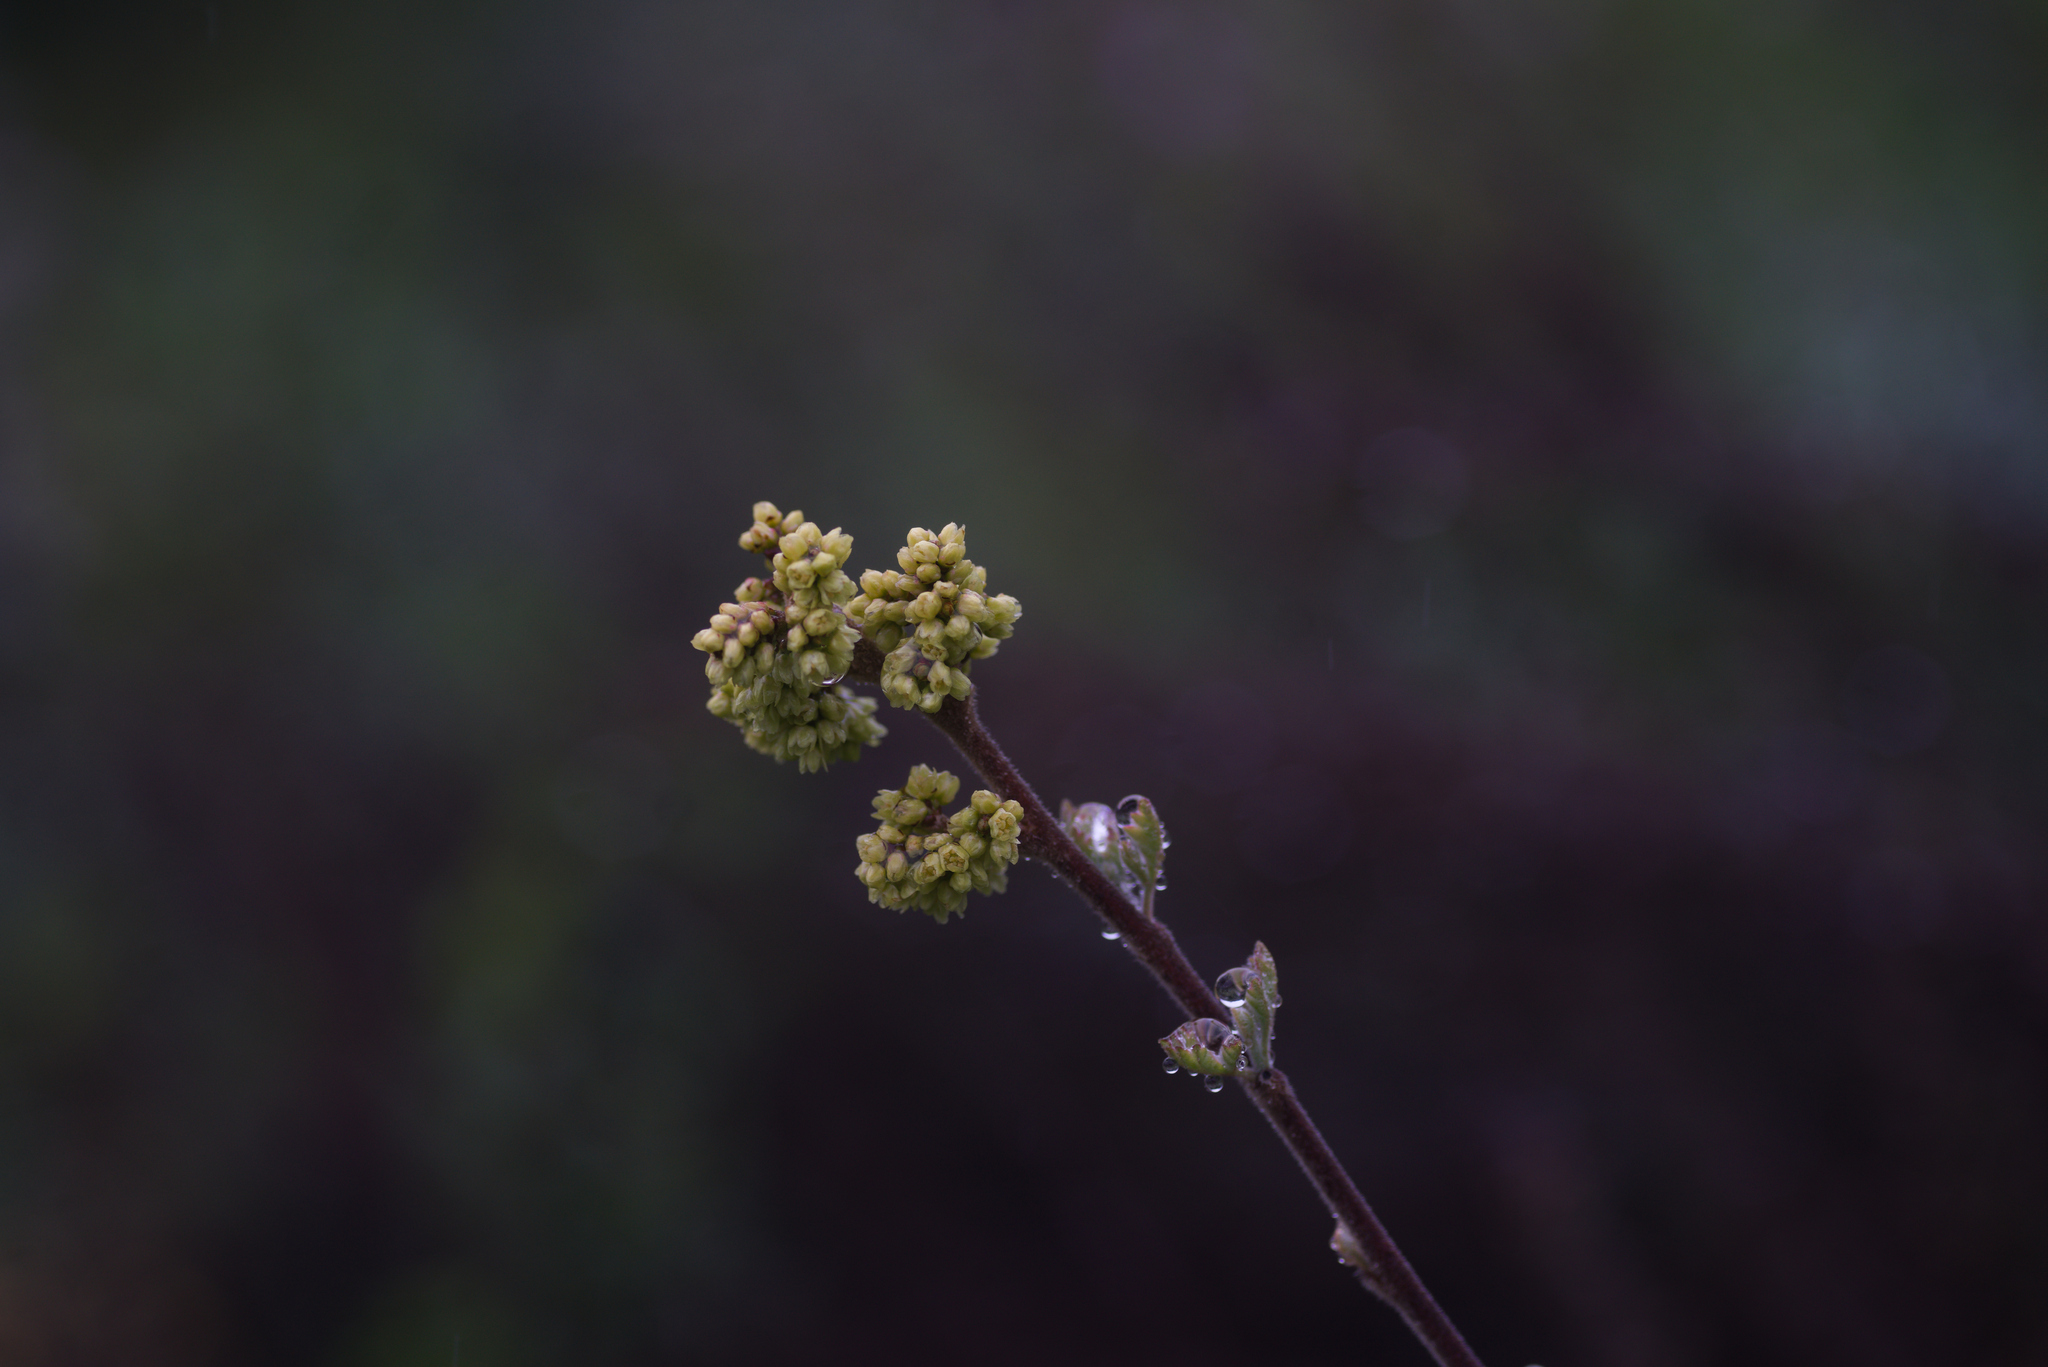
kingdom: Plantae
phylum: Tracheophyta
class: Magnoliopsida
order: Sapindales
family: Anacardiaceae
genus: Rhus
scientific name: Rhus aromatica
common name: Aromatic sumac
